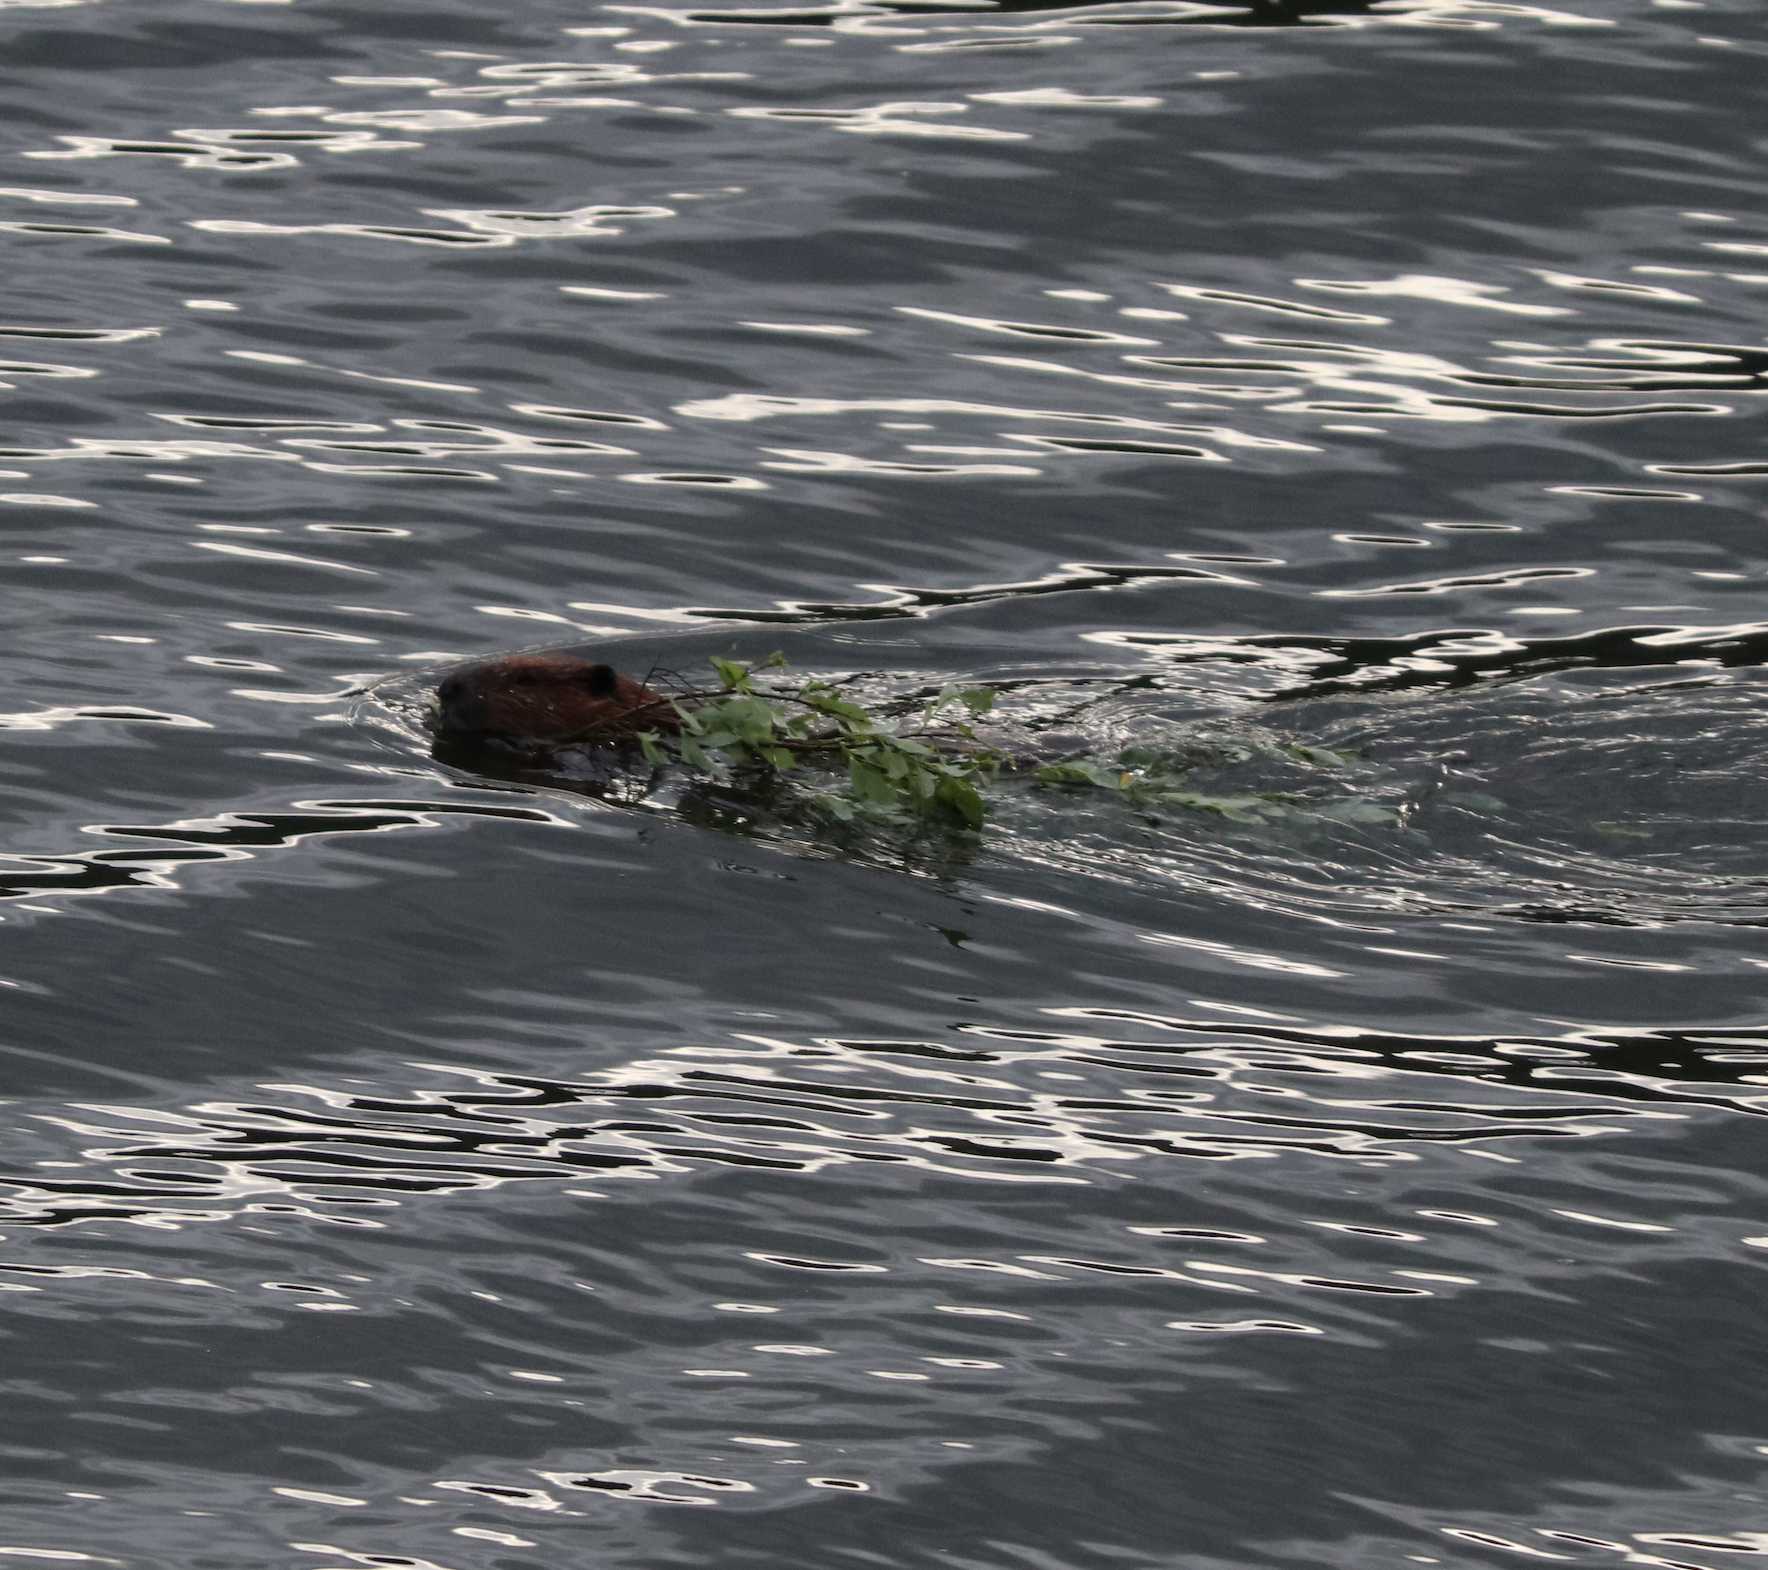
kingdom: Animalia
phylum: Chordata
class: Mammalia
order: Rodentia
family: Castoridae
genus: Castor
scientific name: Castor canadensis
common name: American beaver
